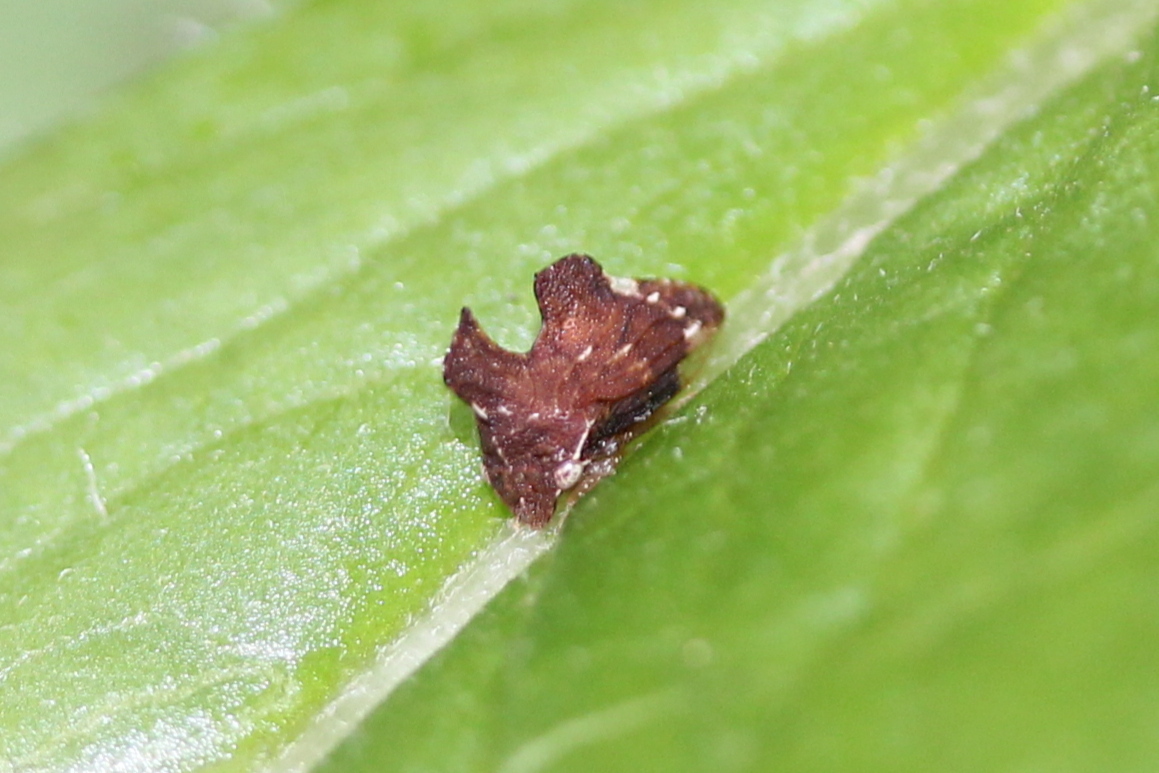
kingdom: Animalia
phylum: Arthropoda
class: Insecta
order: Hemiptera
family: Membracidae
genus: Entylia
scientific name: Entylia carinata
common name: Keeled treehopper
